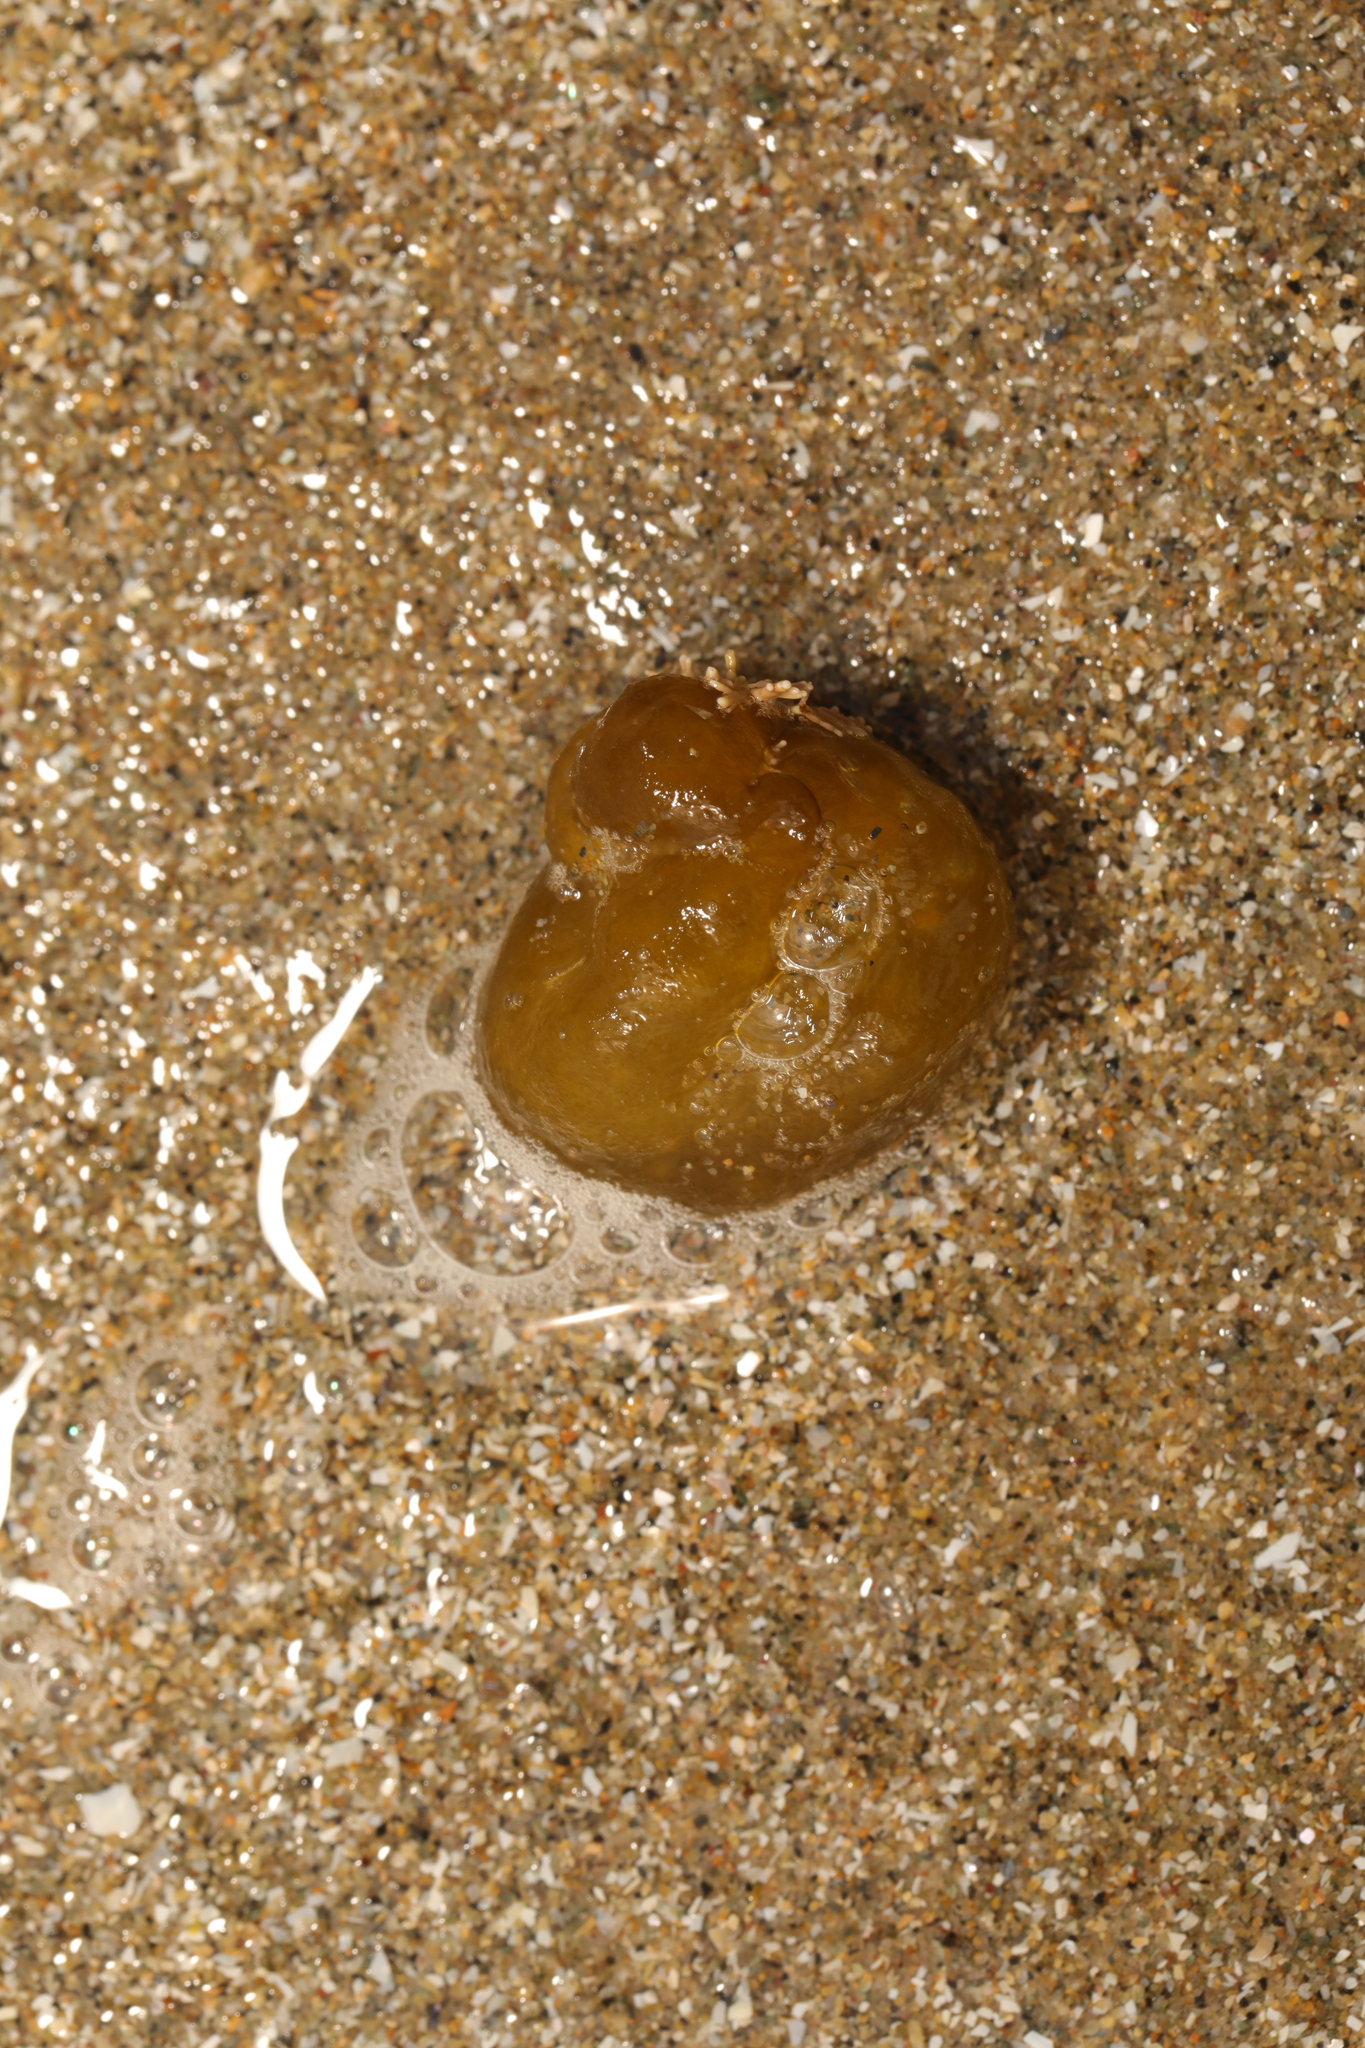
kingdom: Chromista
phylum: Ochrophyta
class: Phaeophyceae
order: Scytosiphonales
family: Scytosiphonaceae
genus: Colpomenia
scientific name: Colpomenia peregrina
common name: Oyster thief
